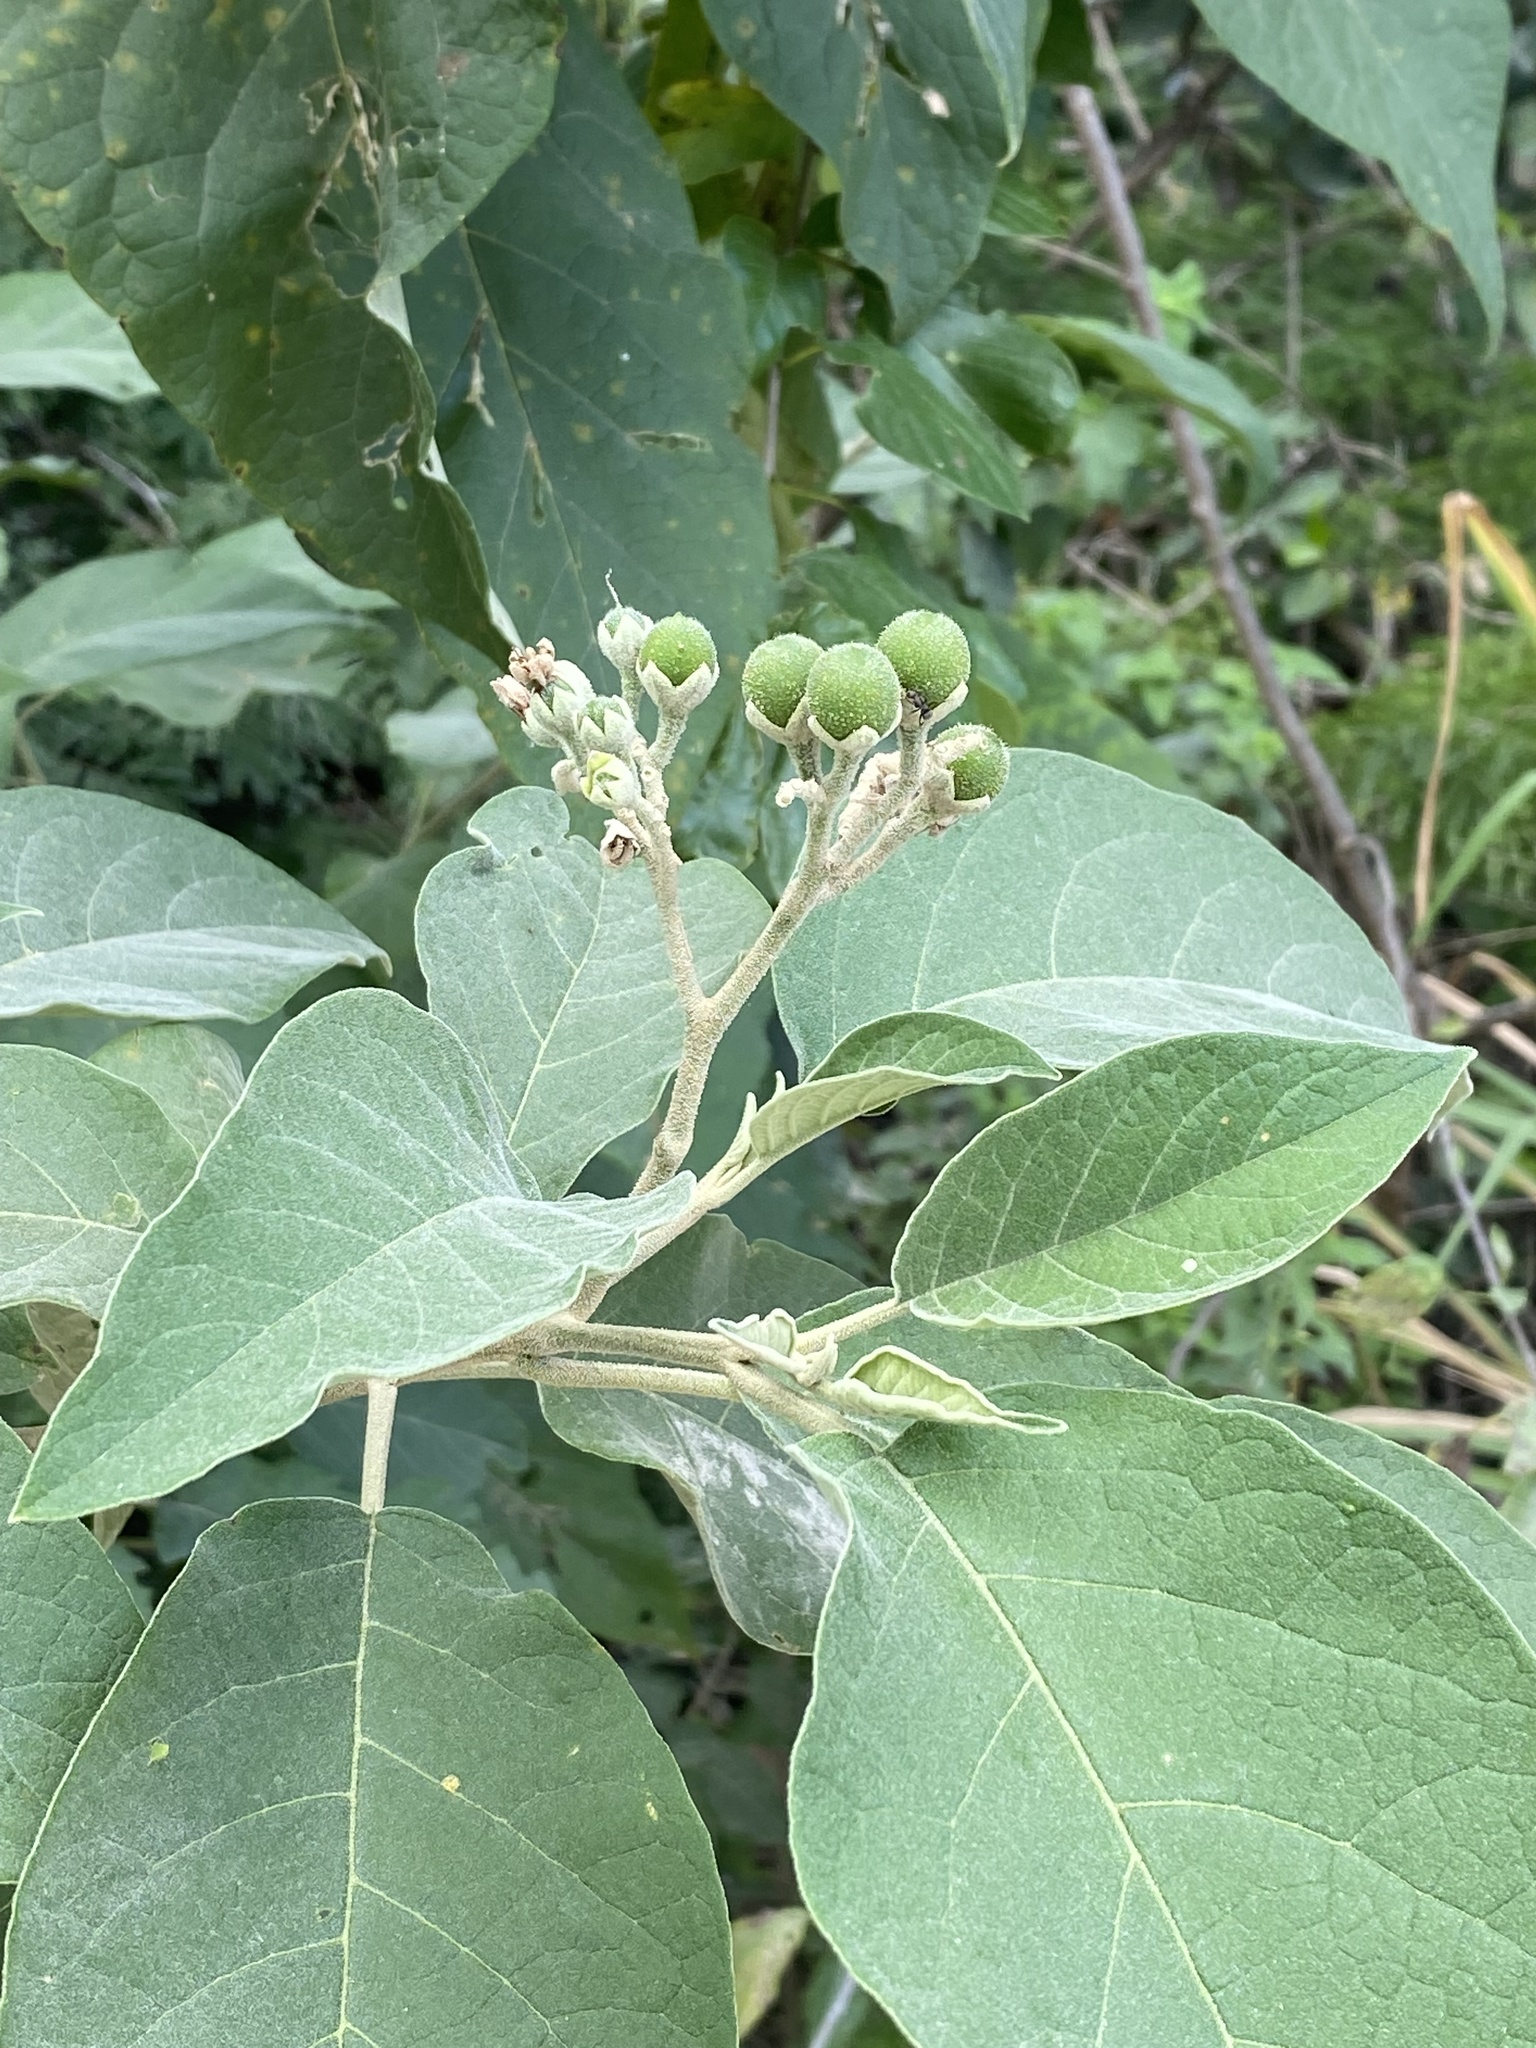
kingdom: Plantae
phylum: Tracheophyta
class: Magnoliopsida
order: Solanales
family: Solanaceae
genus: Solanum
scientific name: Solanum erianthum
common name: Tobacco-tree
